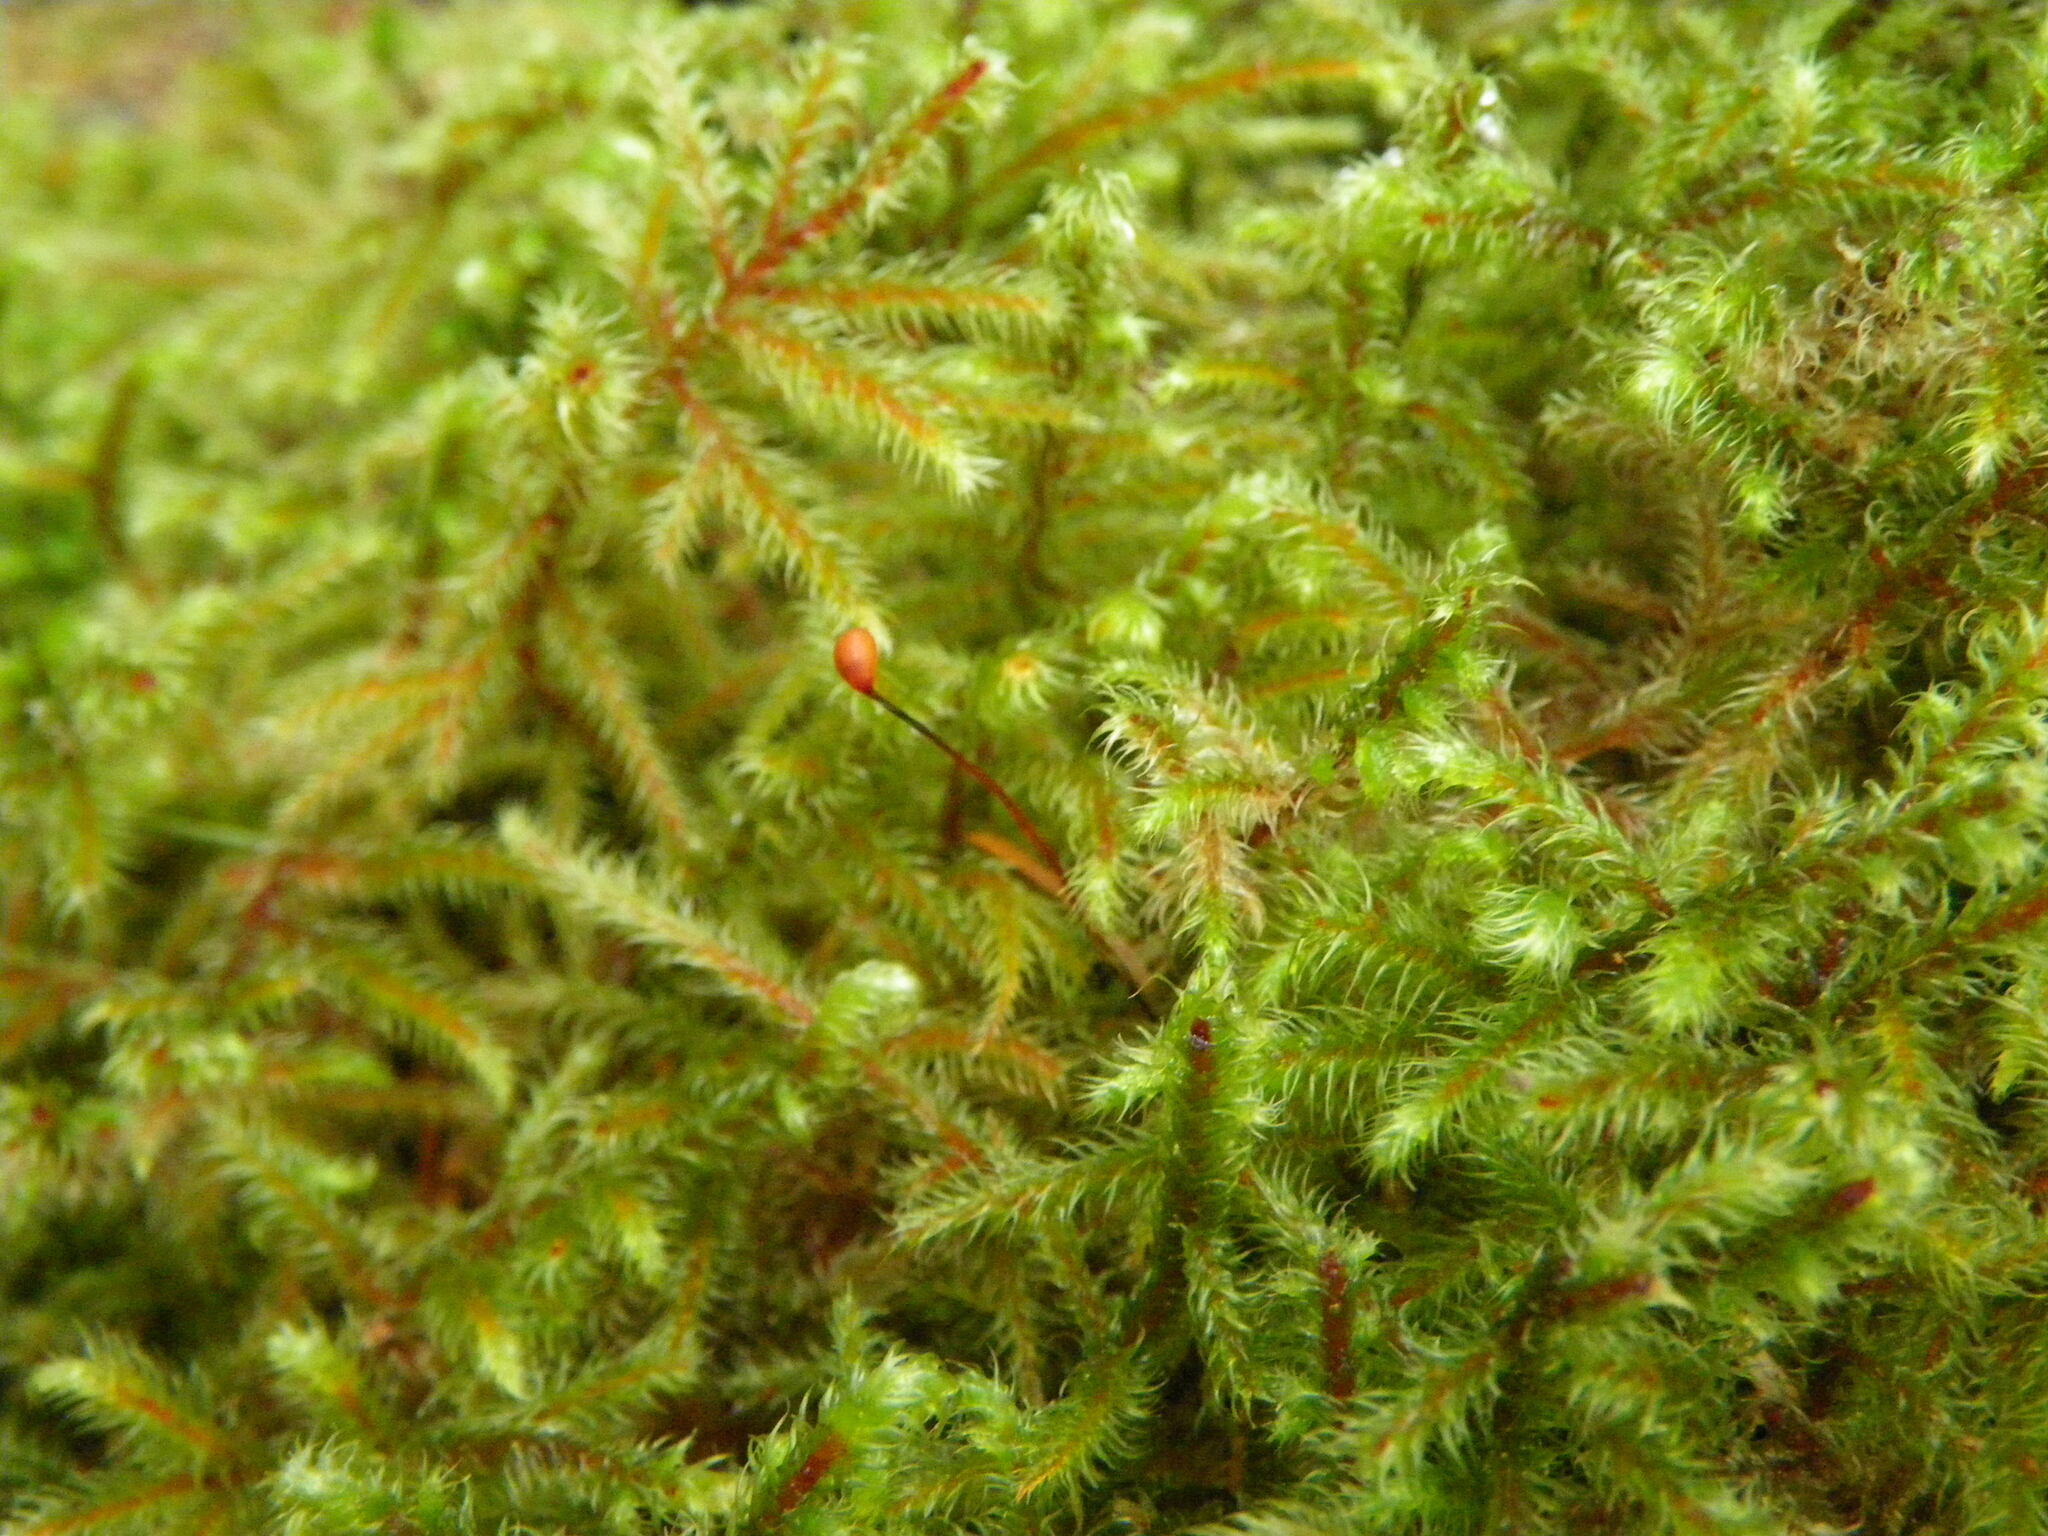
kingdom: Plantae
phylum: Bryophyta
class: Bryopsida
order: Hypnales
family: Hylocomiaceae
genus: Rhytidiadelphus
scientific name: Rhytidiadelphus loreus
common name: Lanky moss
